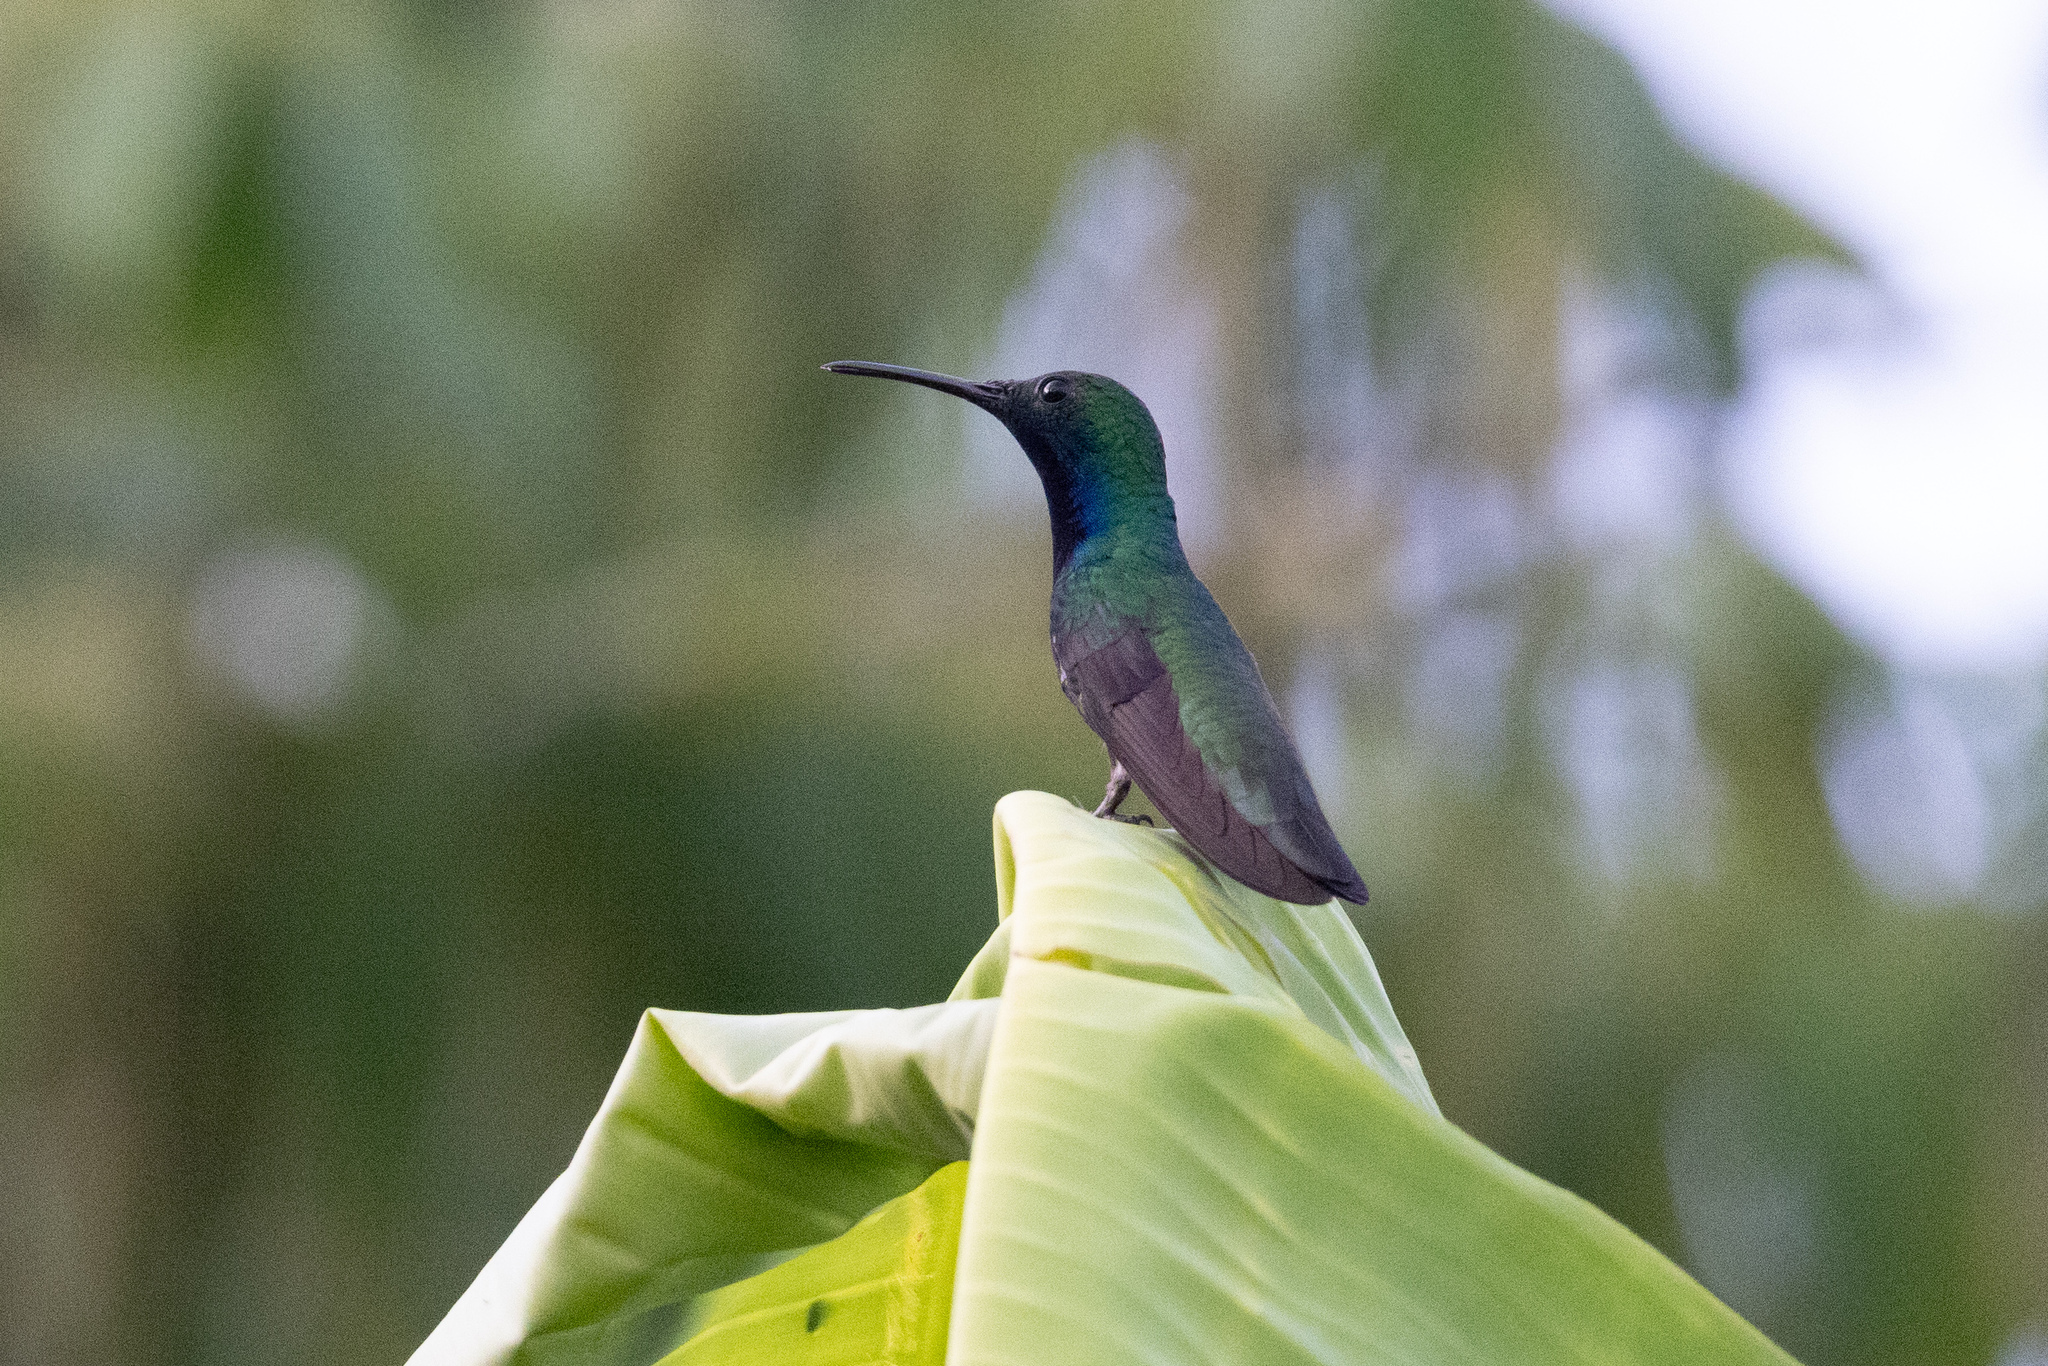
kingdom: Animalia
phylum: Chordata
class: Aves
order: Apodiformes
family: Trochilidae
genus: Anthracothorax
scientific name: Anthracothorax nigricollis
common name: Black-throated mango
